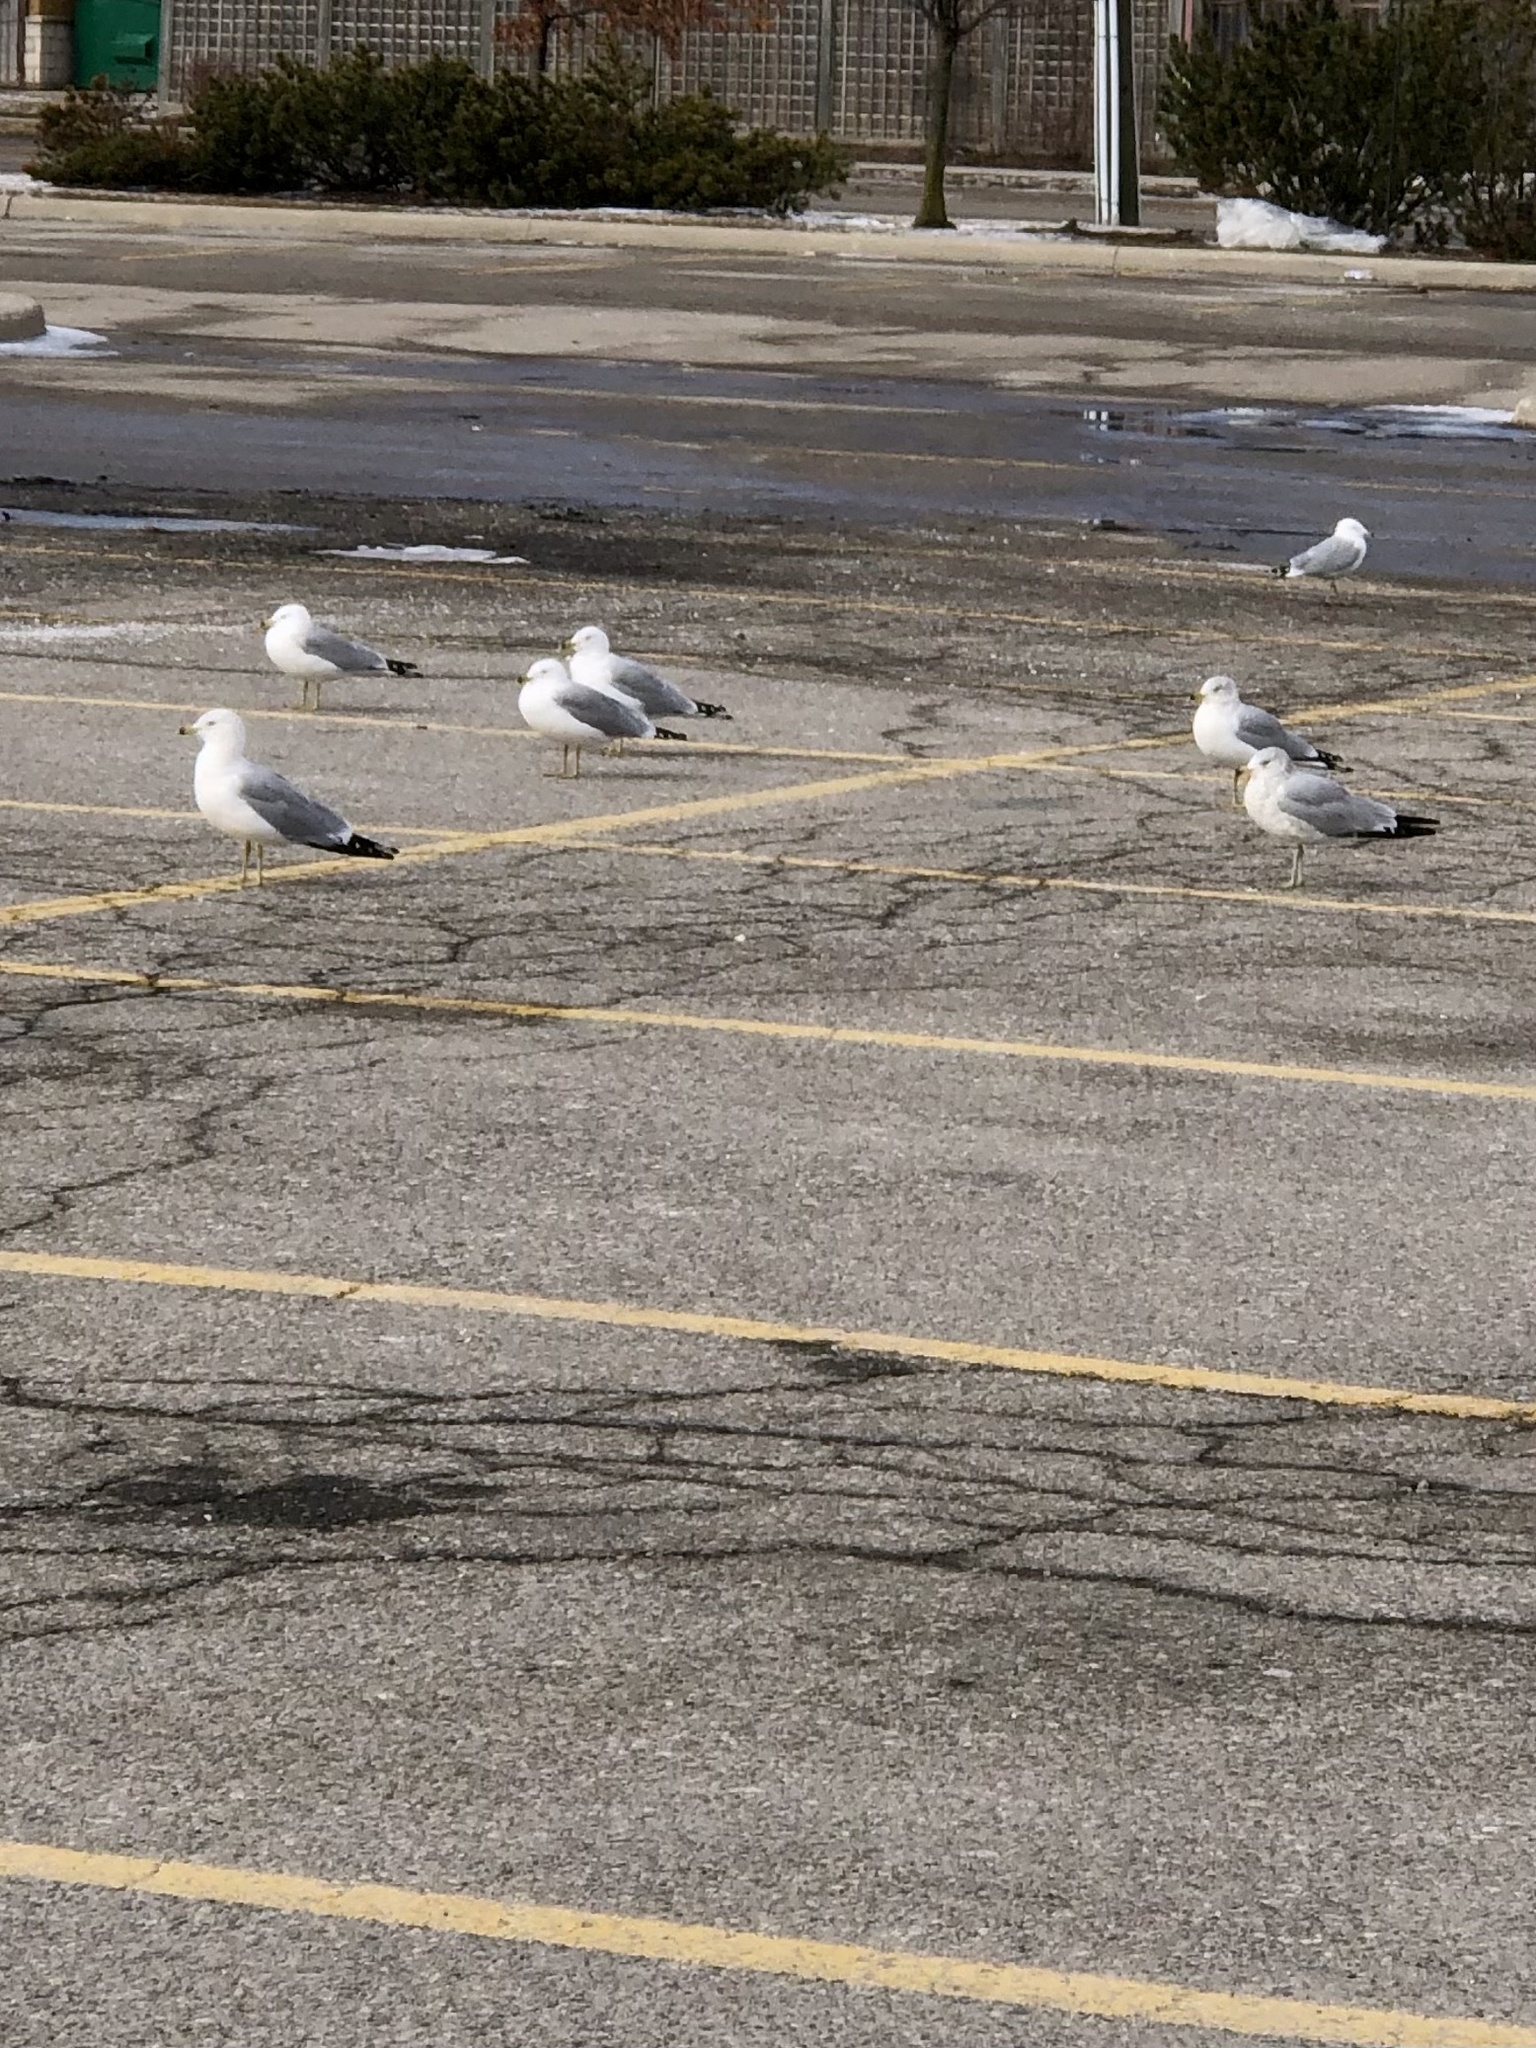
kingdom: Animalia
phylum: Chordata
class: Aves
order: Charadriiformes
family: Laridae
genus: Larus
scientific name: Larus delawarensis
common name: Ring-billed gull
